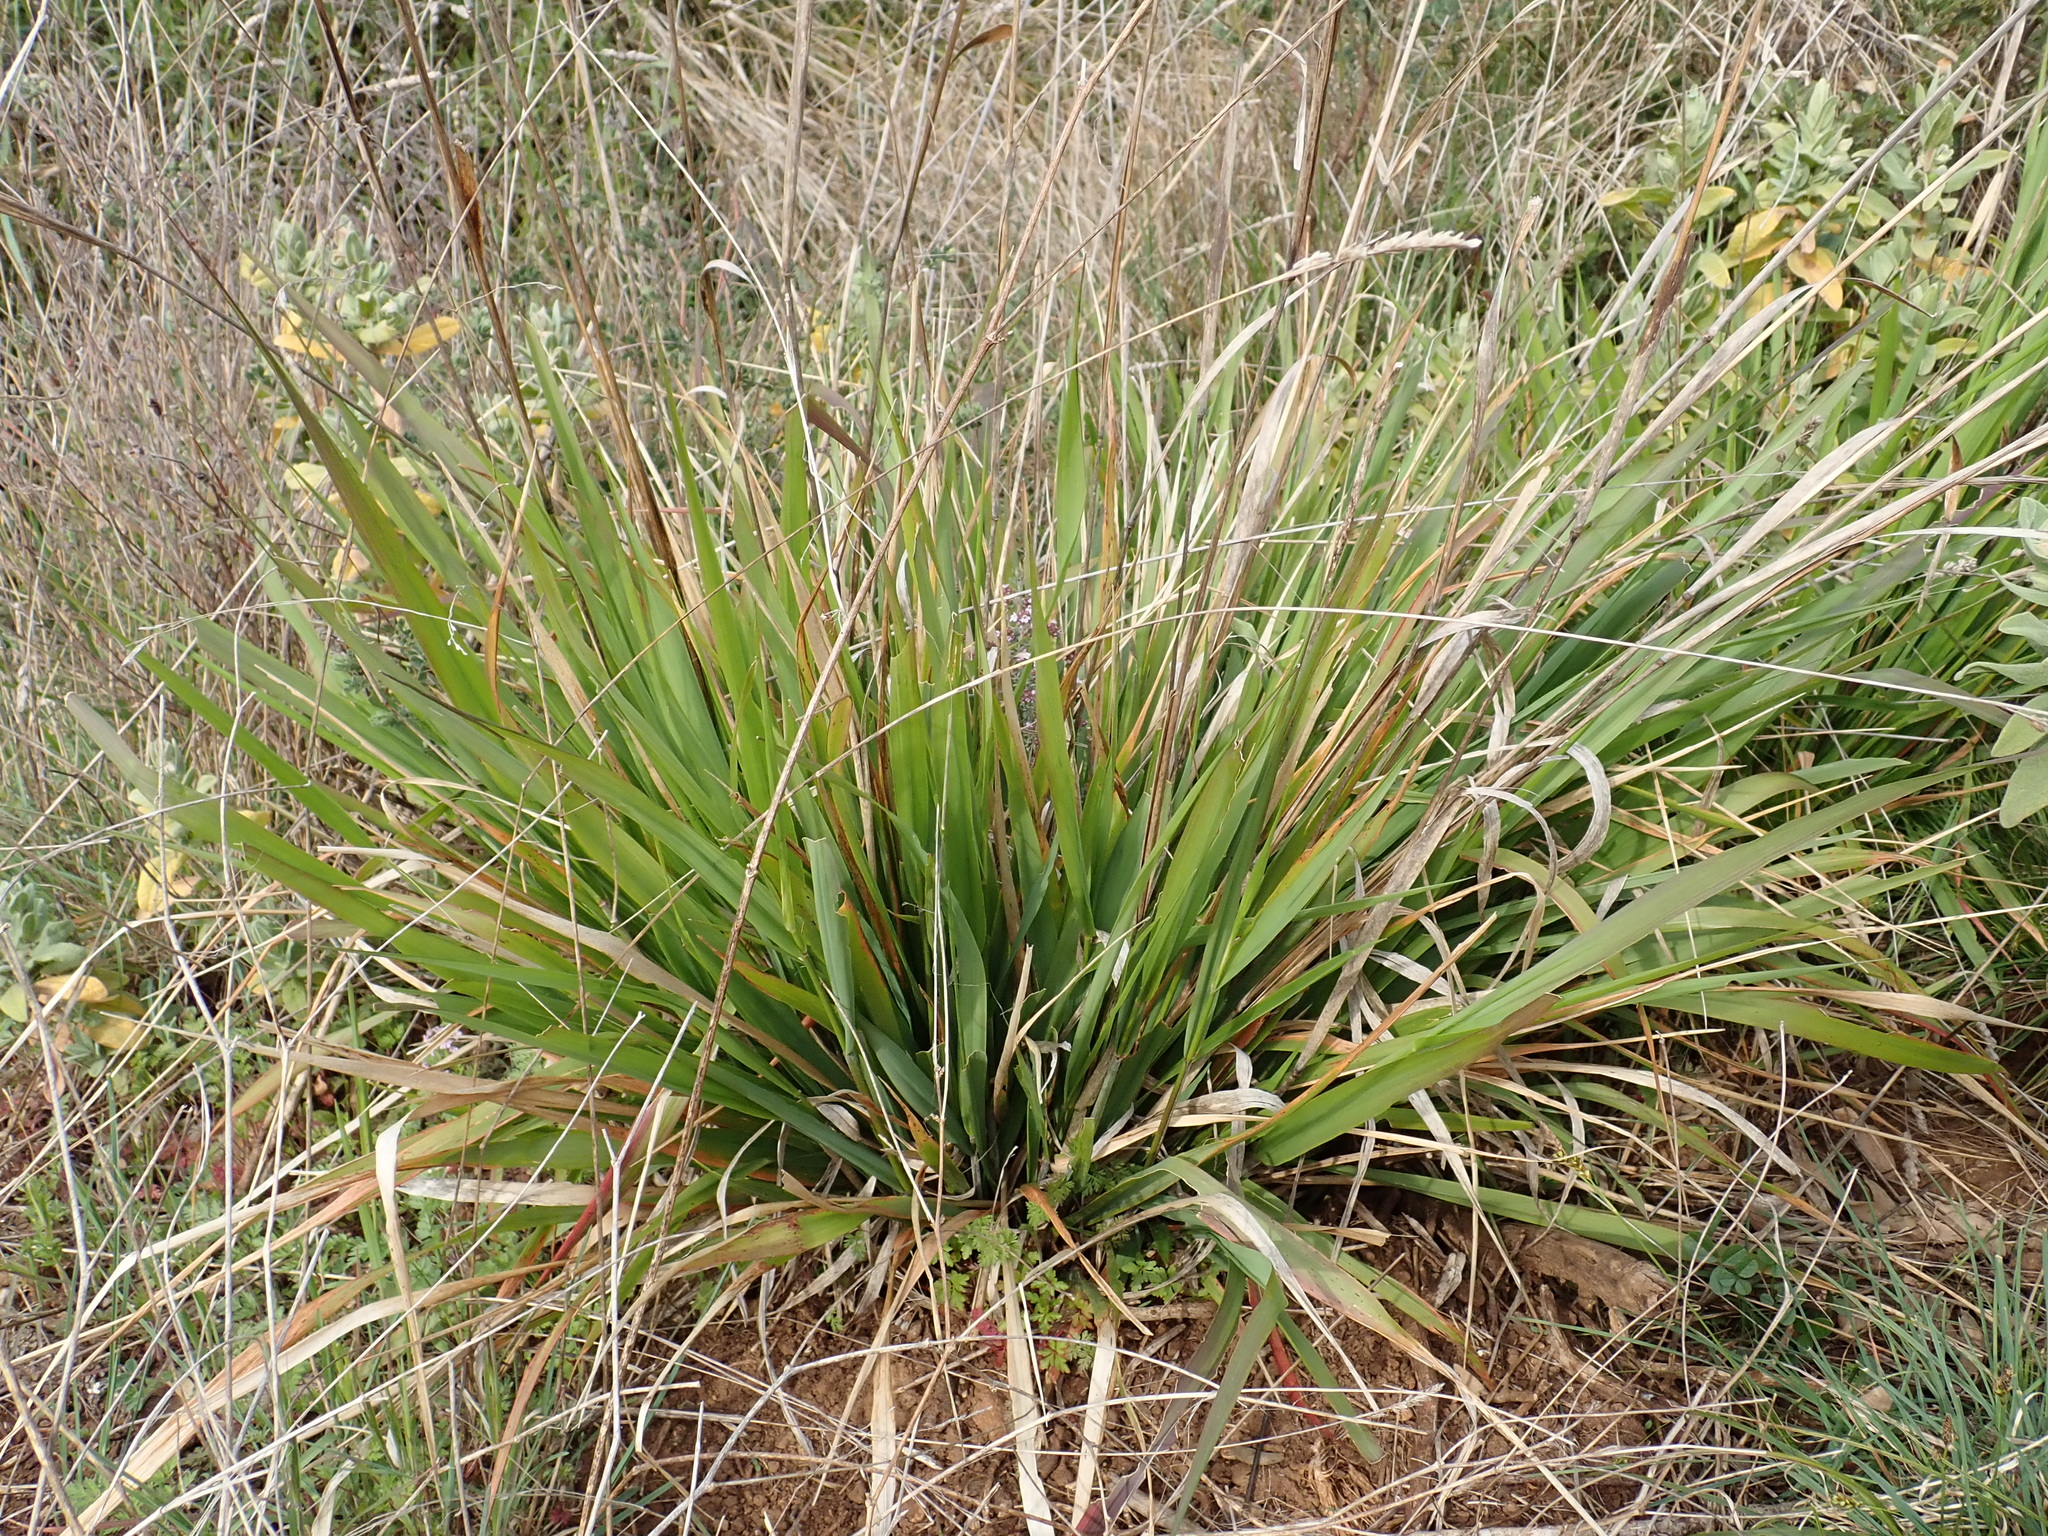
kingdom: Plantae
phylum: Tracheophyta
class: Liliopsida
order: Poales
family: Poaceae
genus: Oryzopsis
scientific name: Oryzopsis paradoxa
